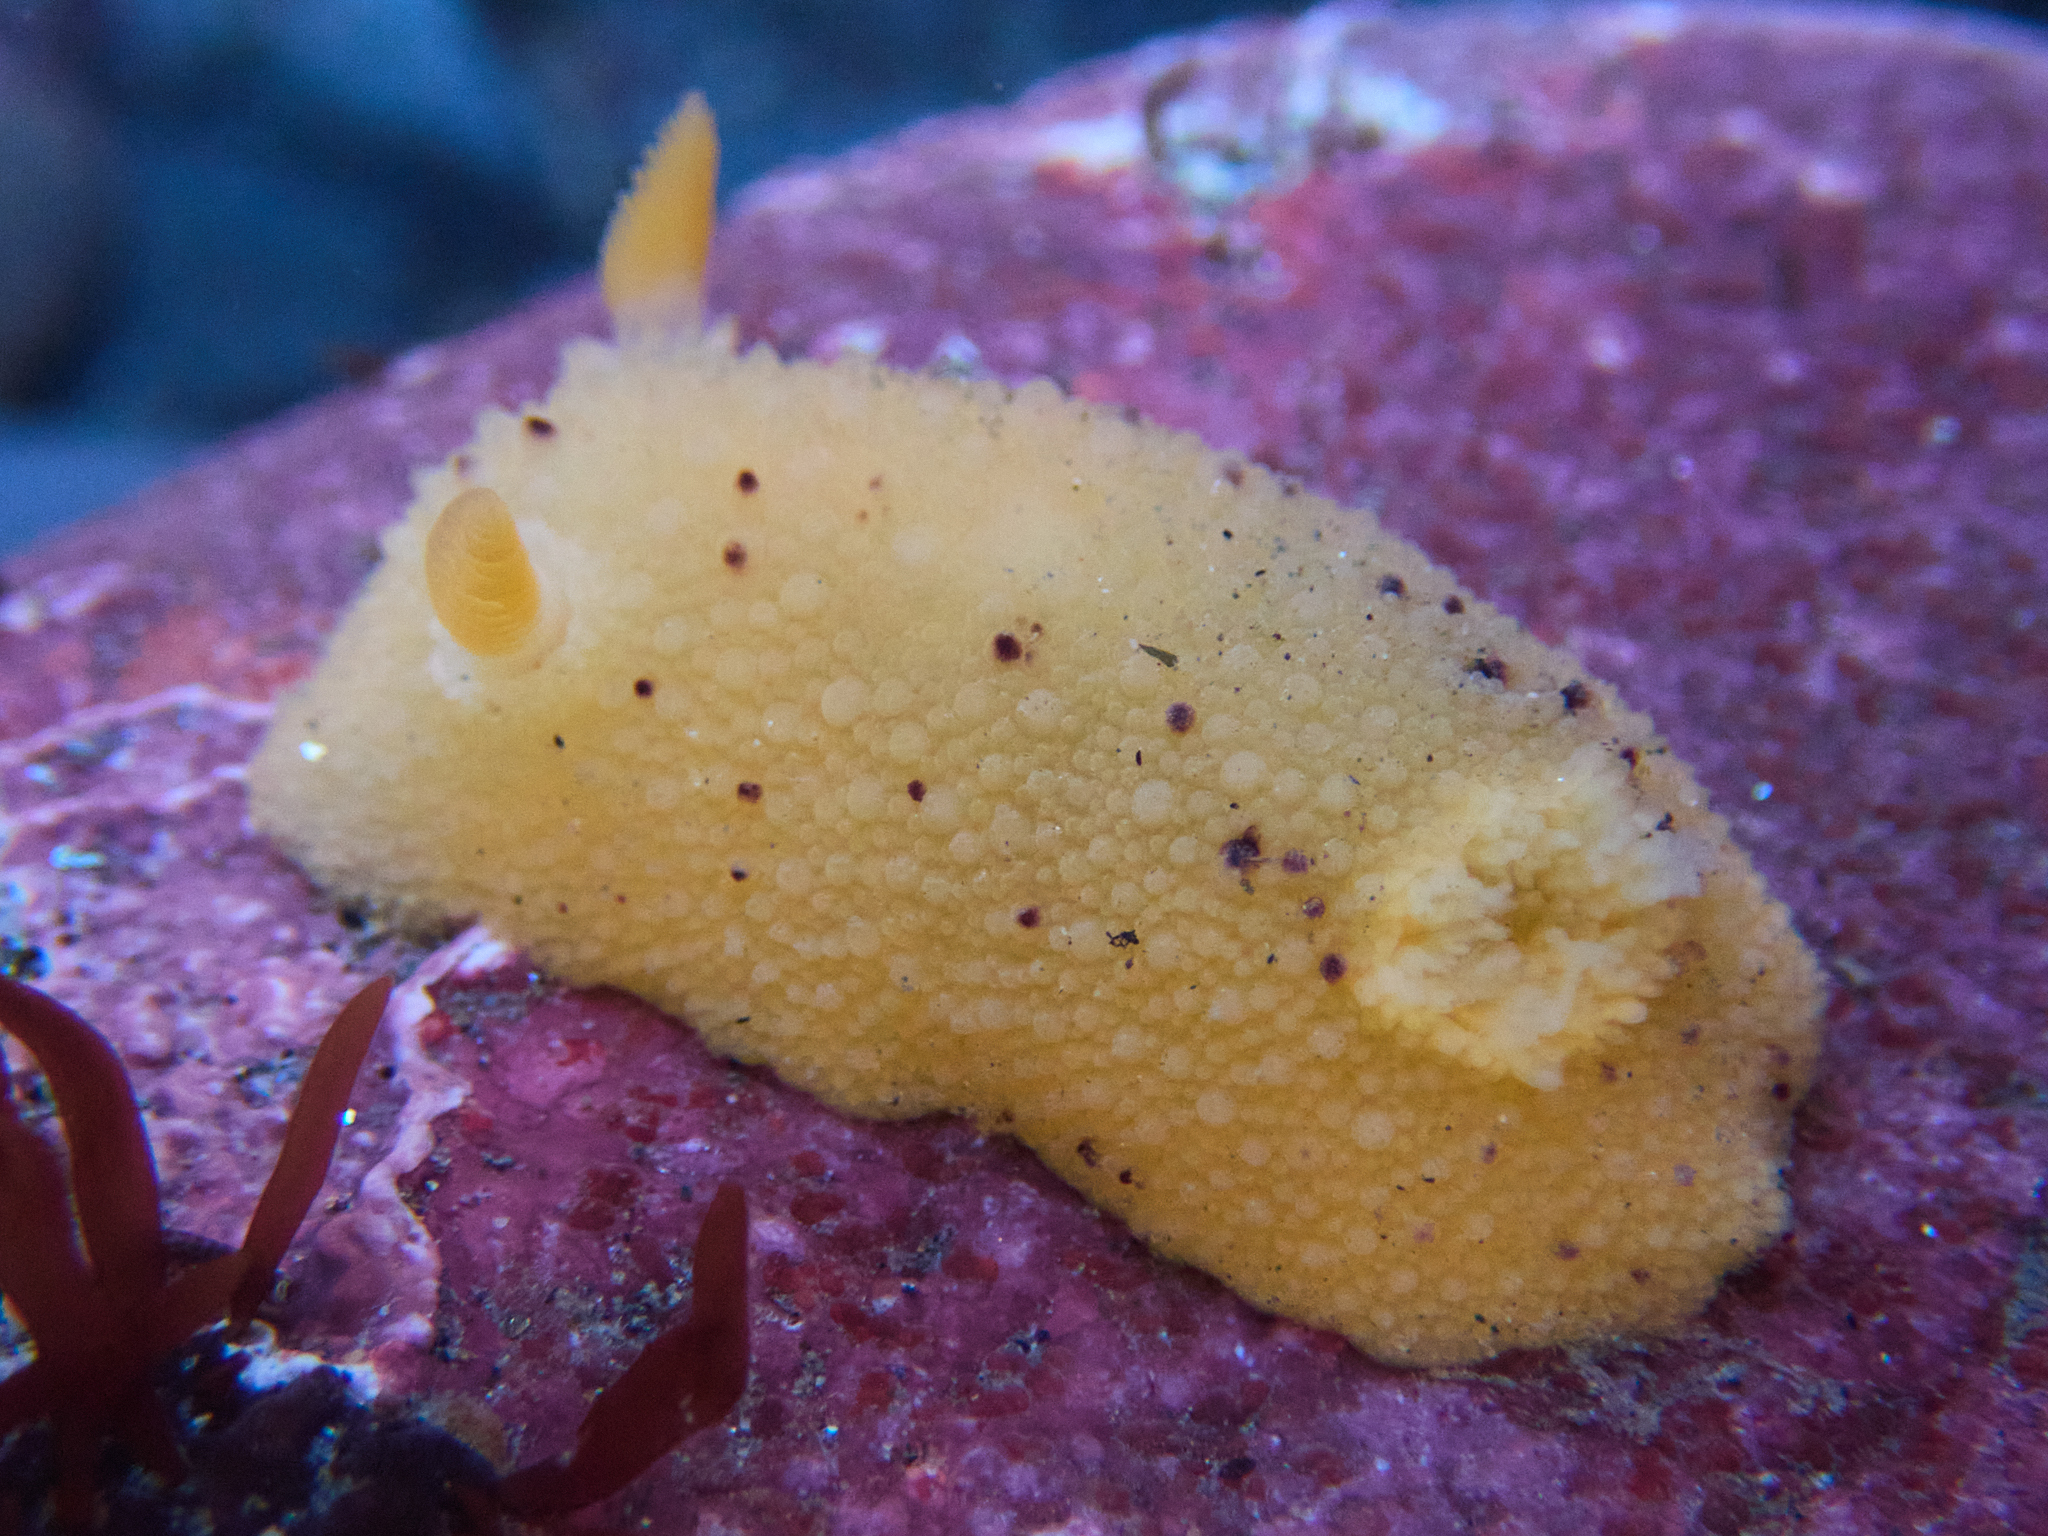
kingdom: Animalia
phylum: Mollusca
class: Gastropoda
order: Nudibranchia
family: Dorididae
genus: Doris
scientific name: Doris montereyensis
